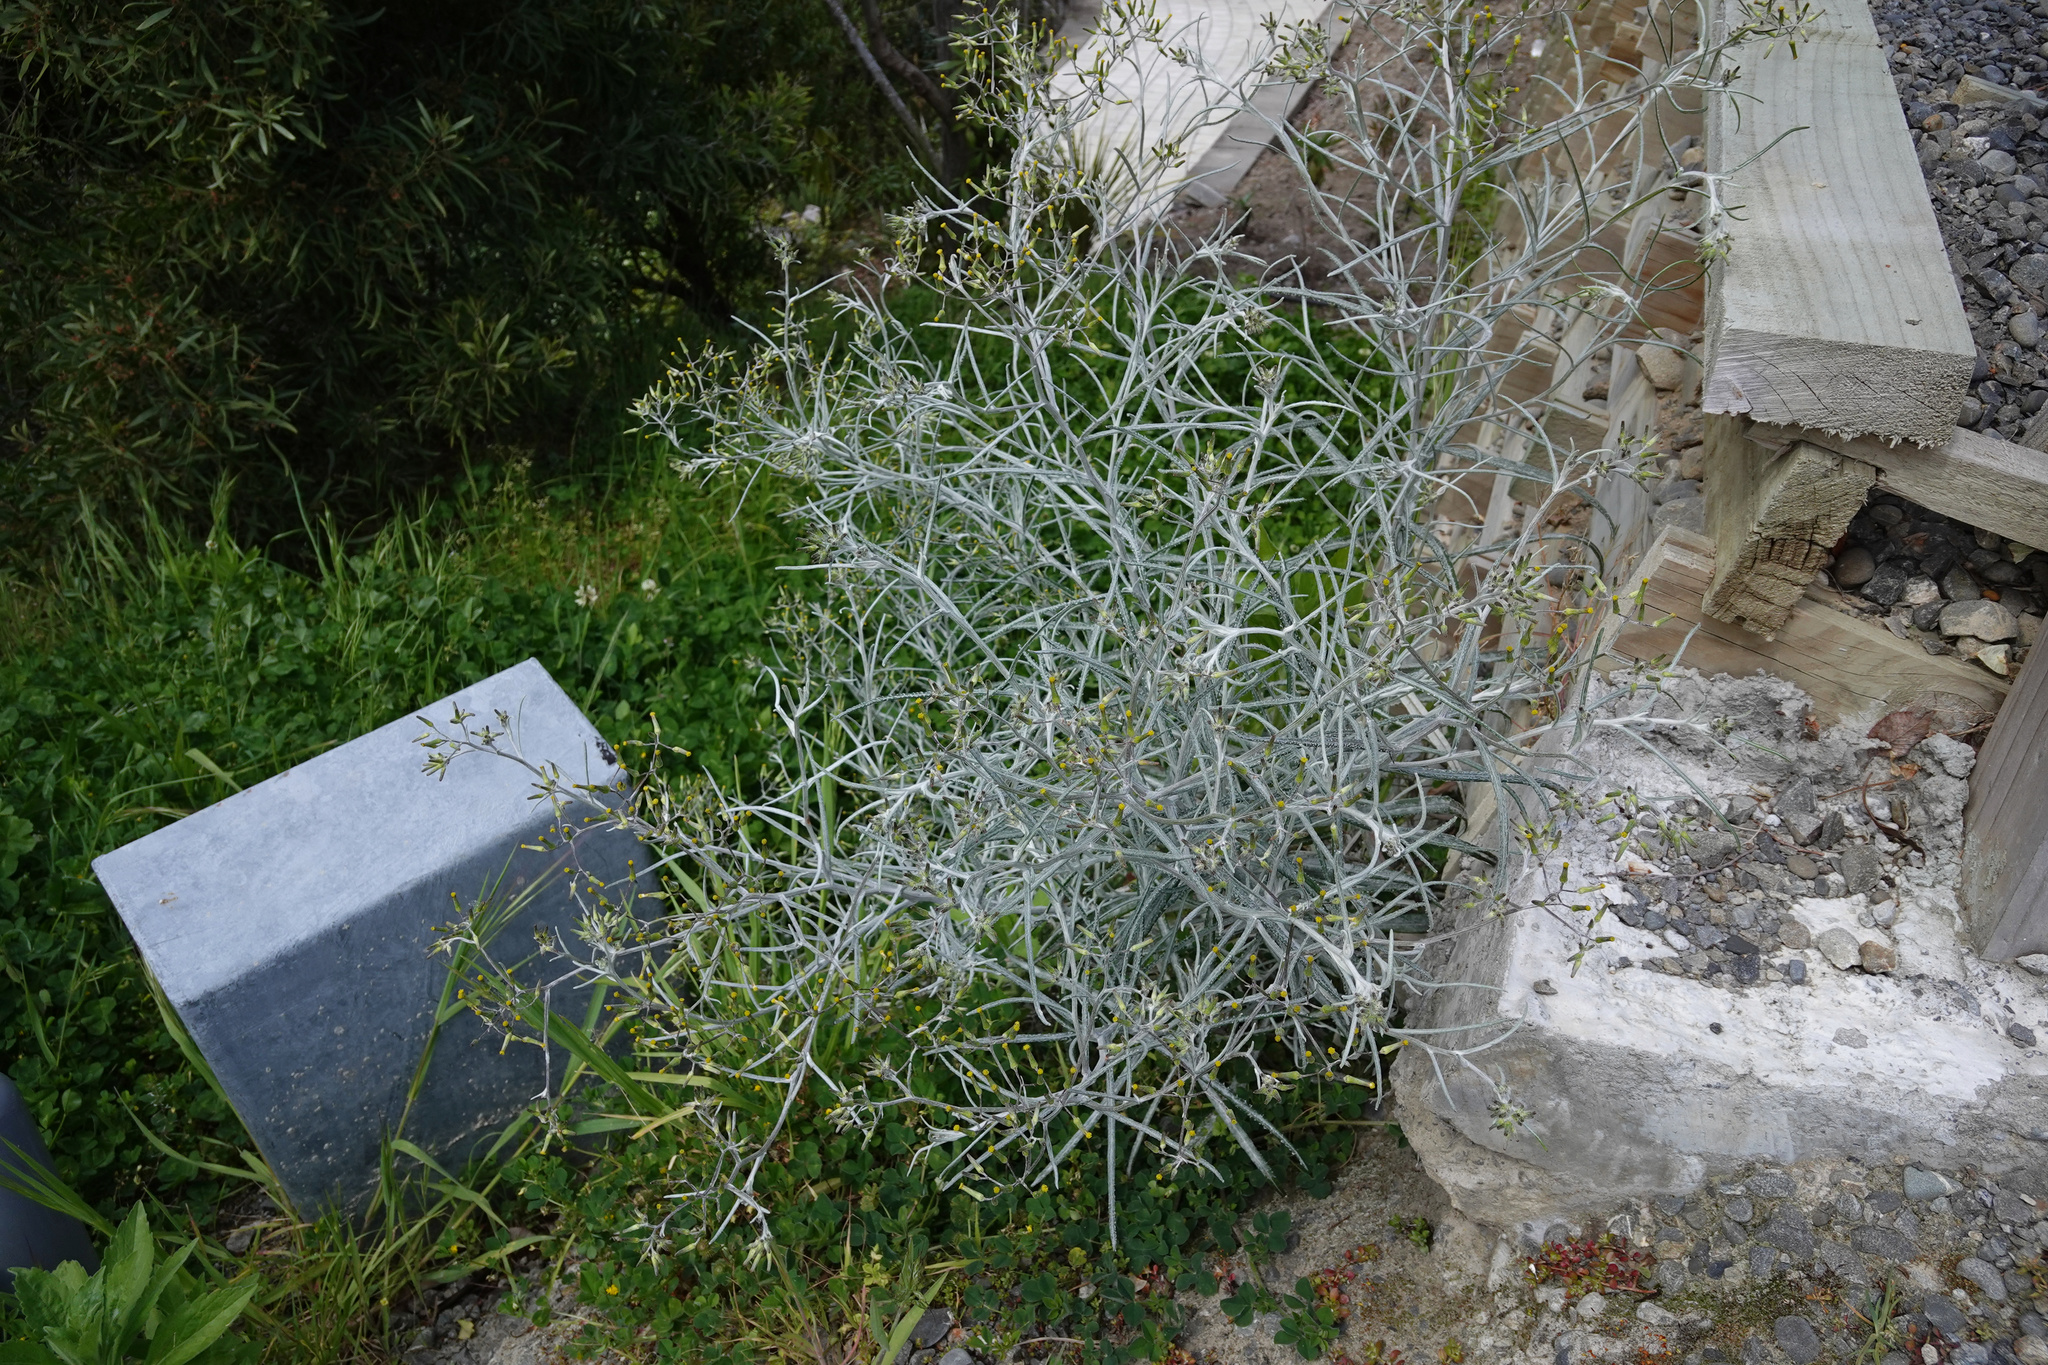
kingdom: Plantae
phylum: Tracheophyta
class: Magnoliopsida
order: Asterales
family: Asteraceae
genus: Senecio
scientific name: Senecio quadridentatus
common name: Cotton fireweed
